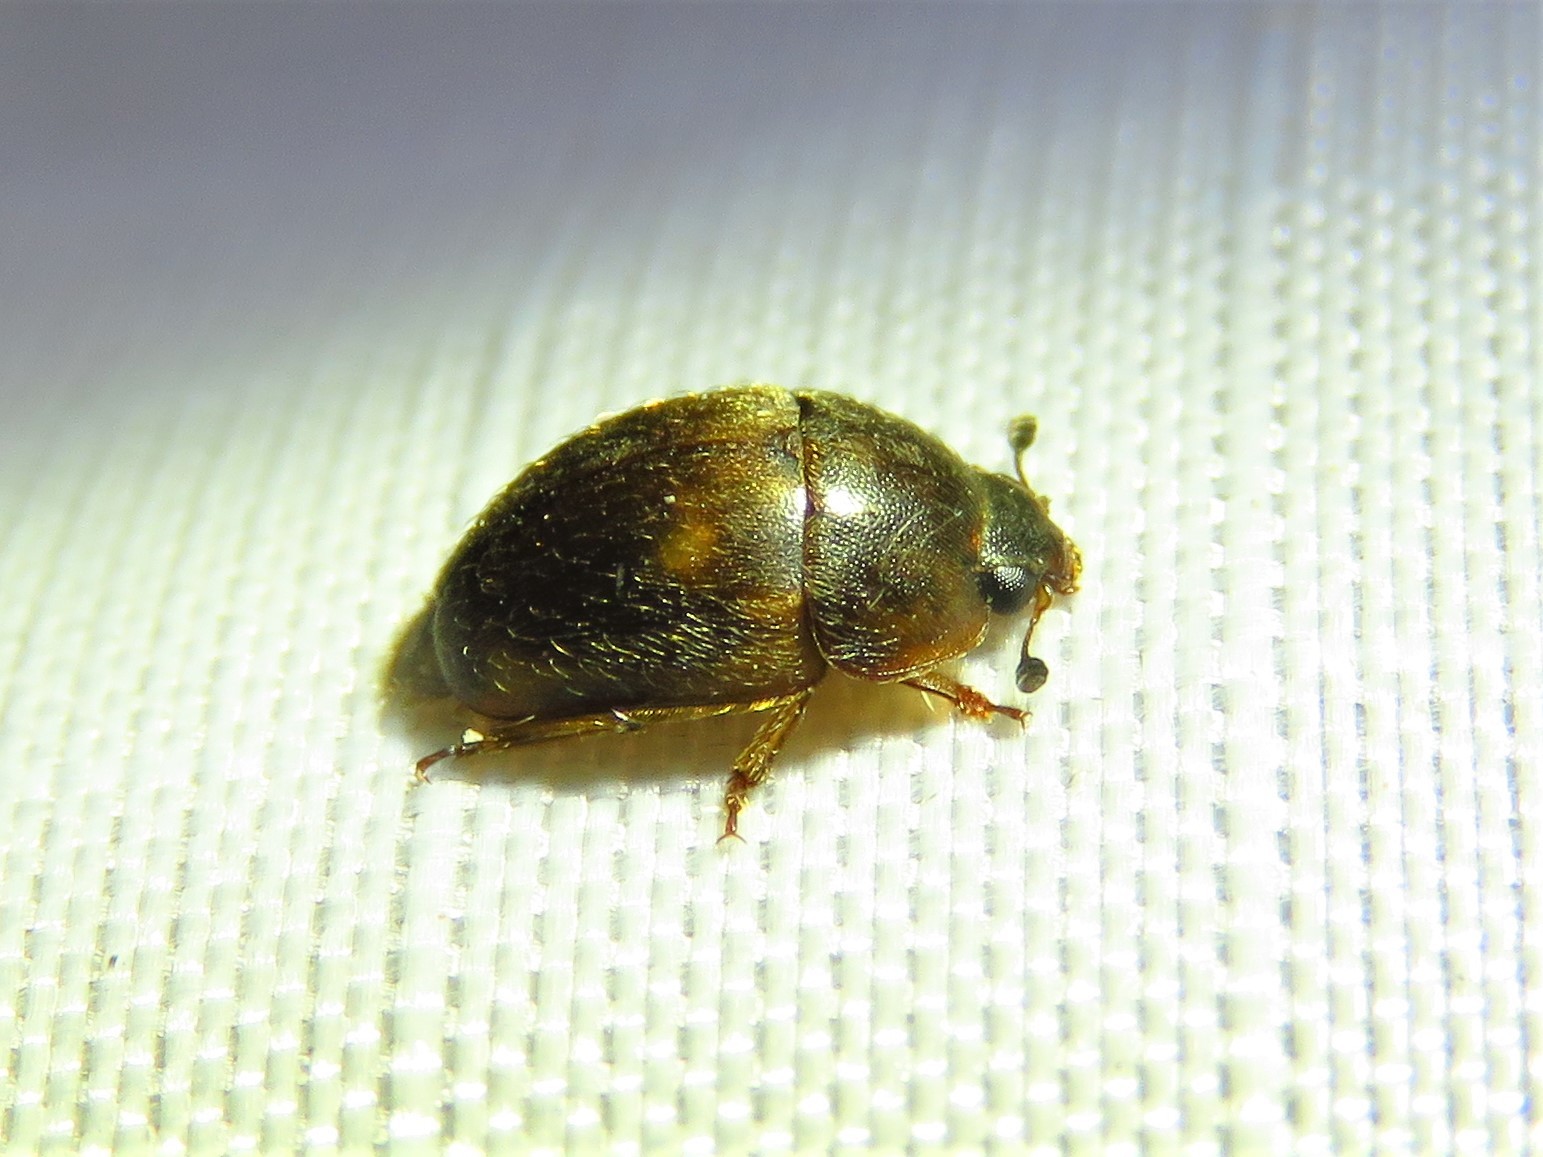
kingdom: Animalia
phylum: Arthropoda
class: Insecta
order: Coleoptera
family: Nitidulidae
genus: Amphicrossus
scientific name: Amphicrossus ciliatus
